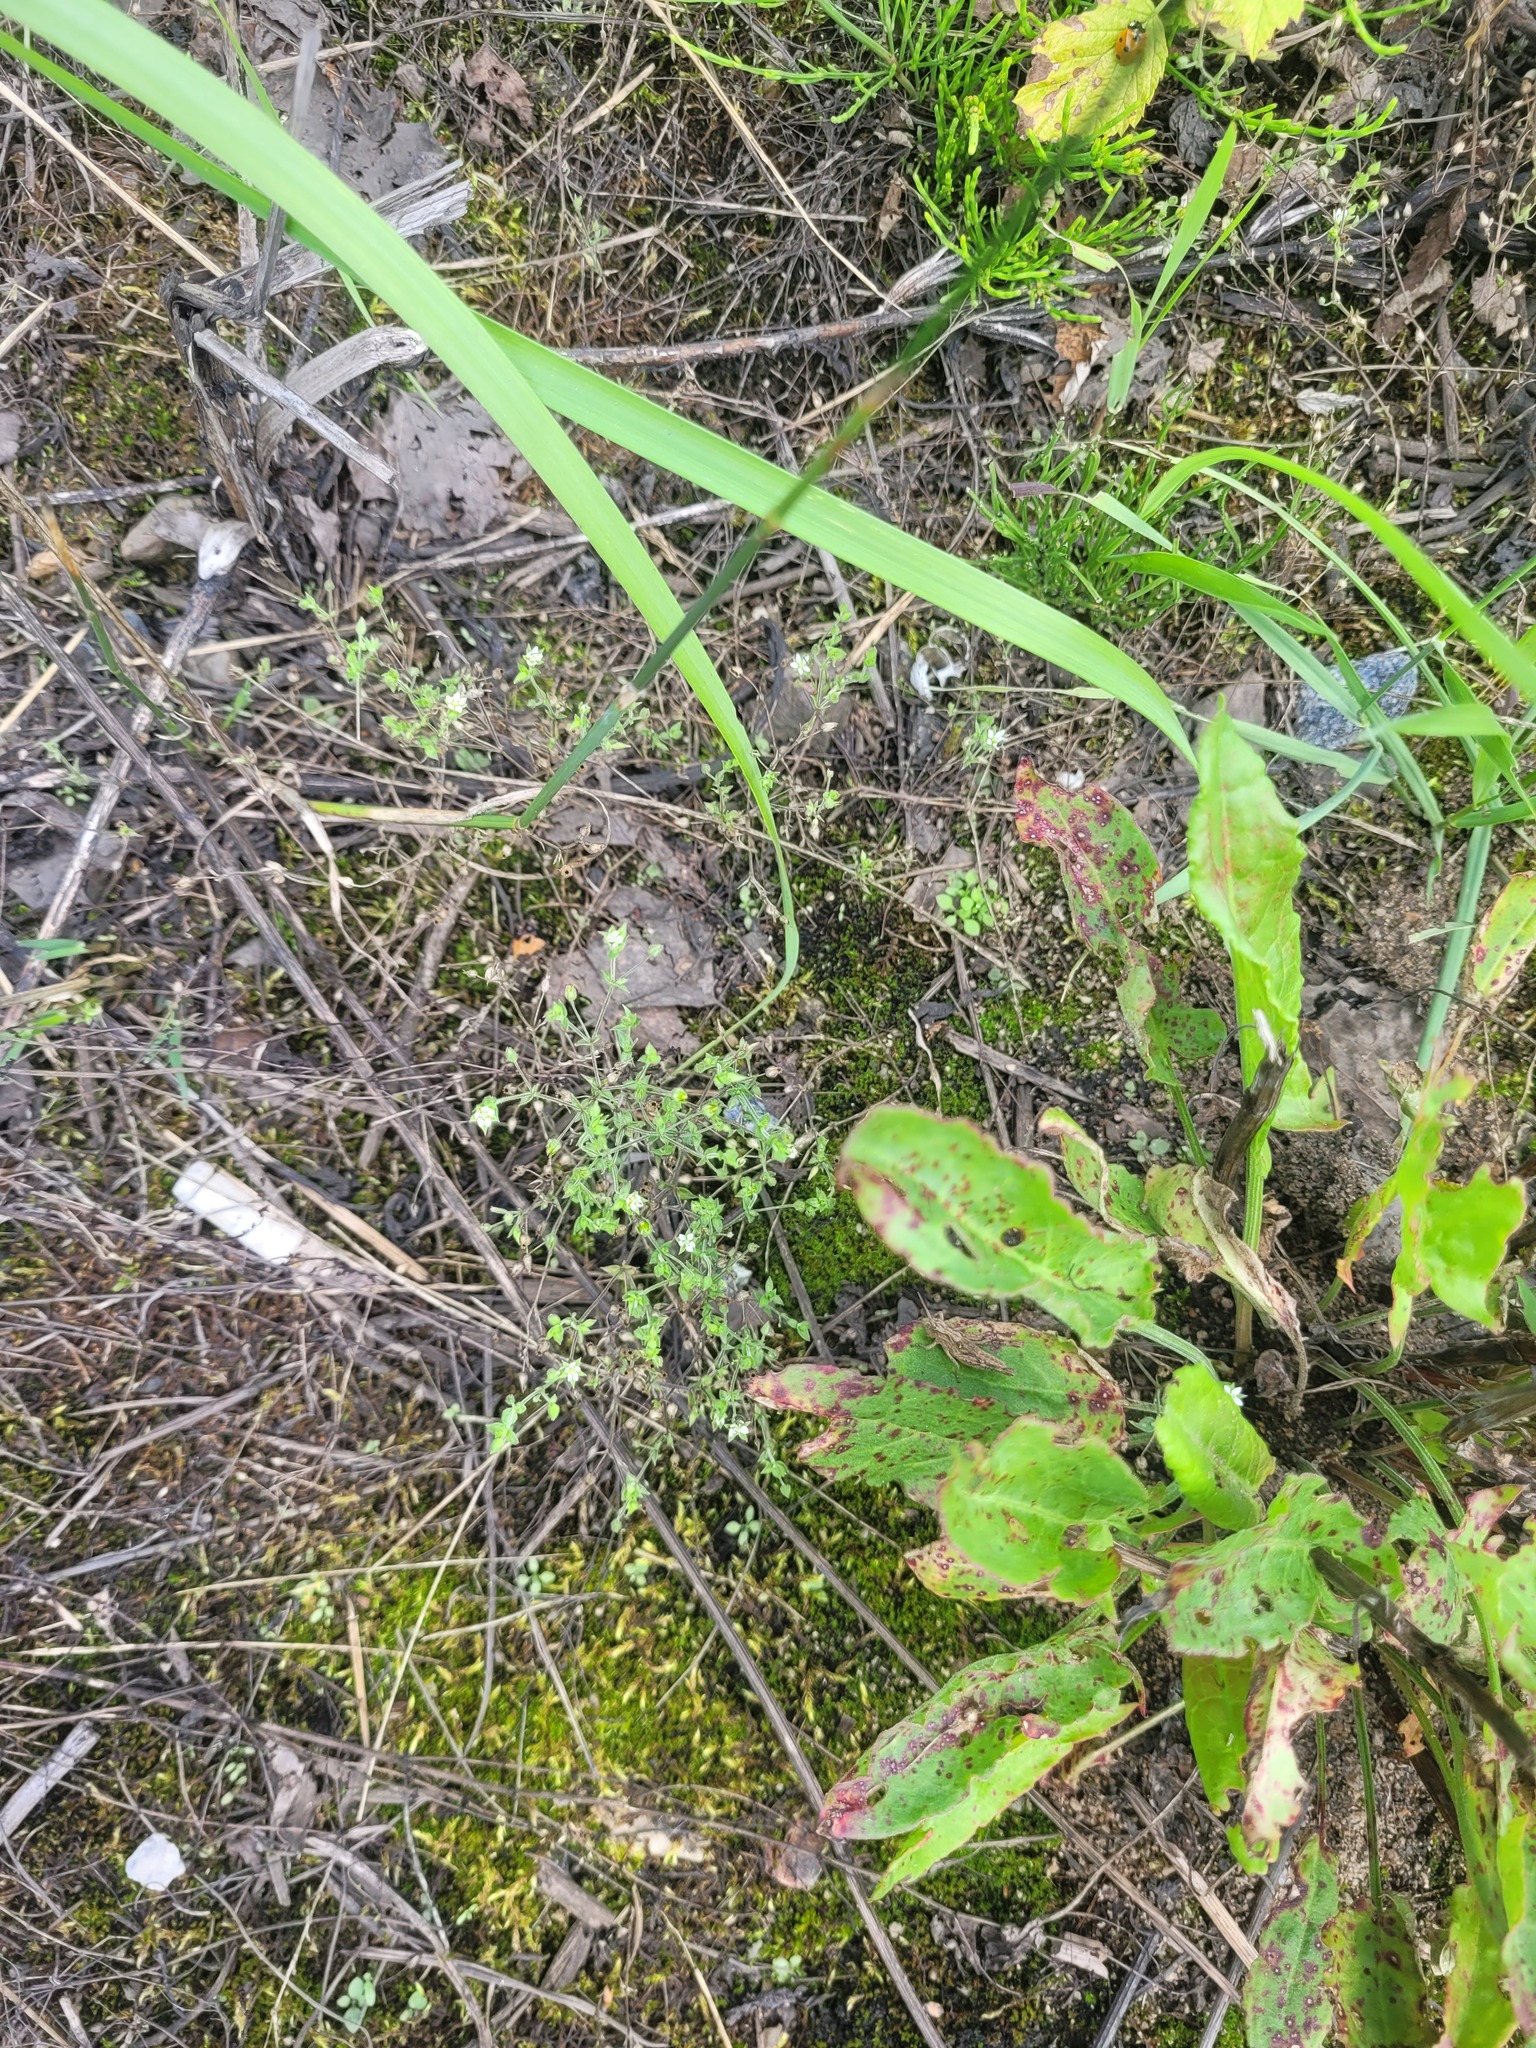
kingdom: Plantae
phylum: Tracheophyta
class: Magnoliopsida
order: Caryophyllales
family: Caryophyllaceae
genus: Arenaria
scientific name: Arenaria serpyllifolia
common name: Thyme-leaved sandwort
